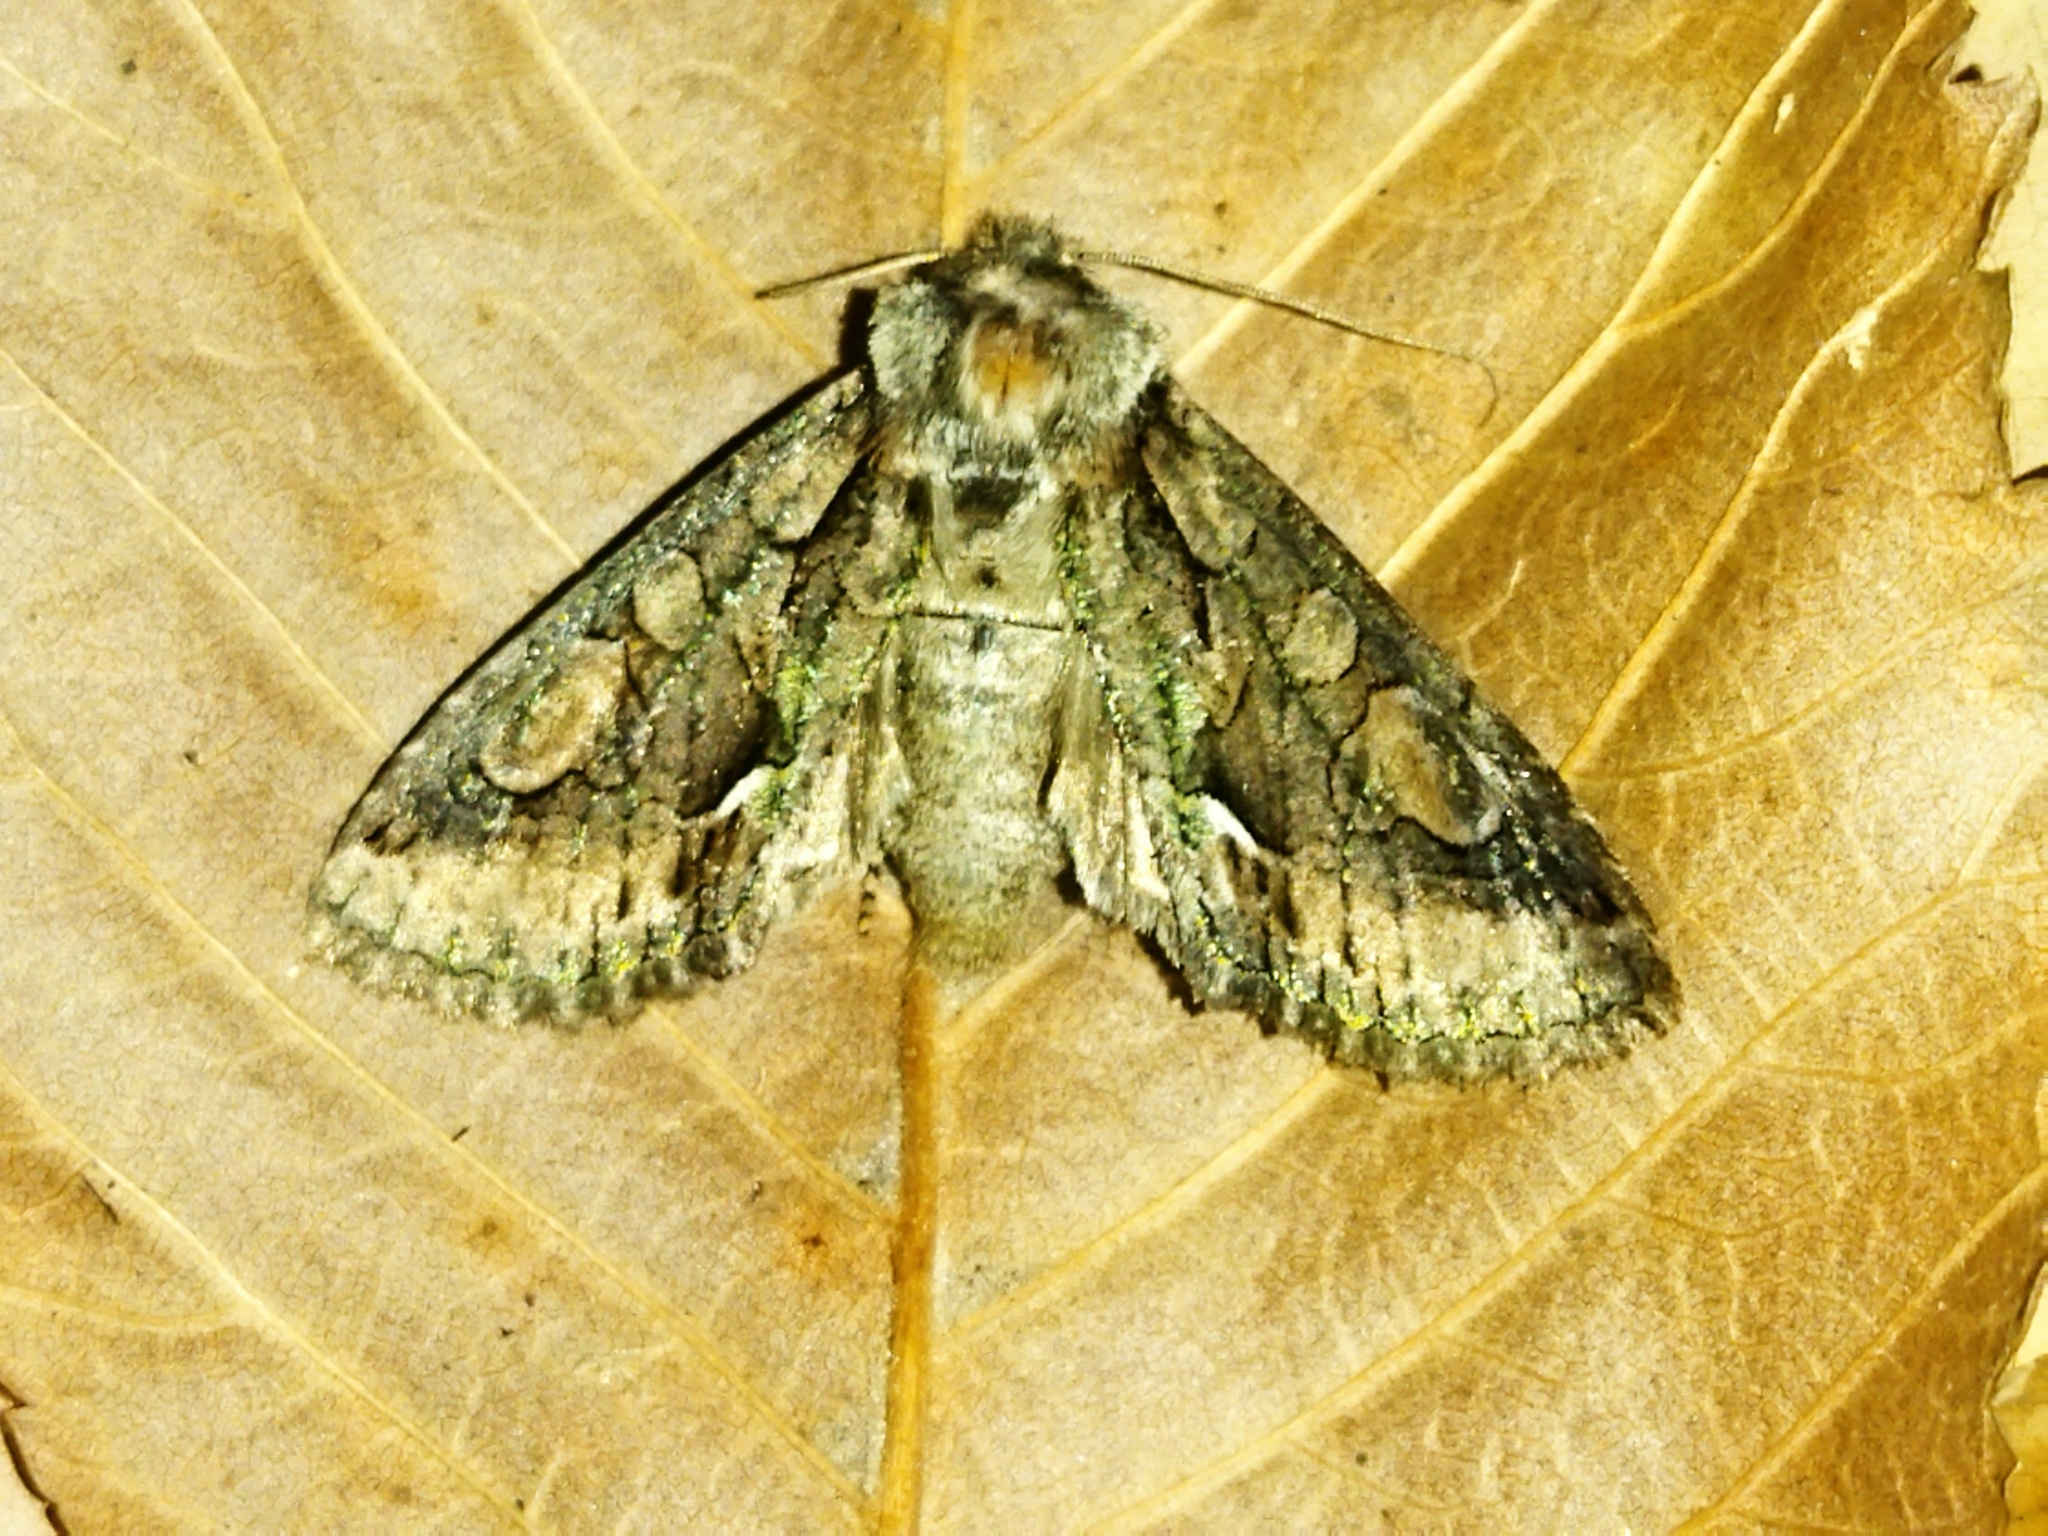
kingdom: Animalia
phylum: Arthropoda
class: Insecta
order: Lepidoptera
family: Noctuidae
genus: Allophyes
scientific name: Allophyes oxyacanthae
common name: Green-brindled crescent
